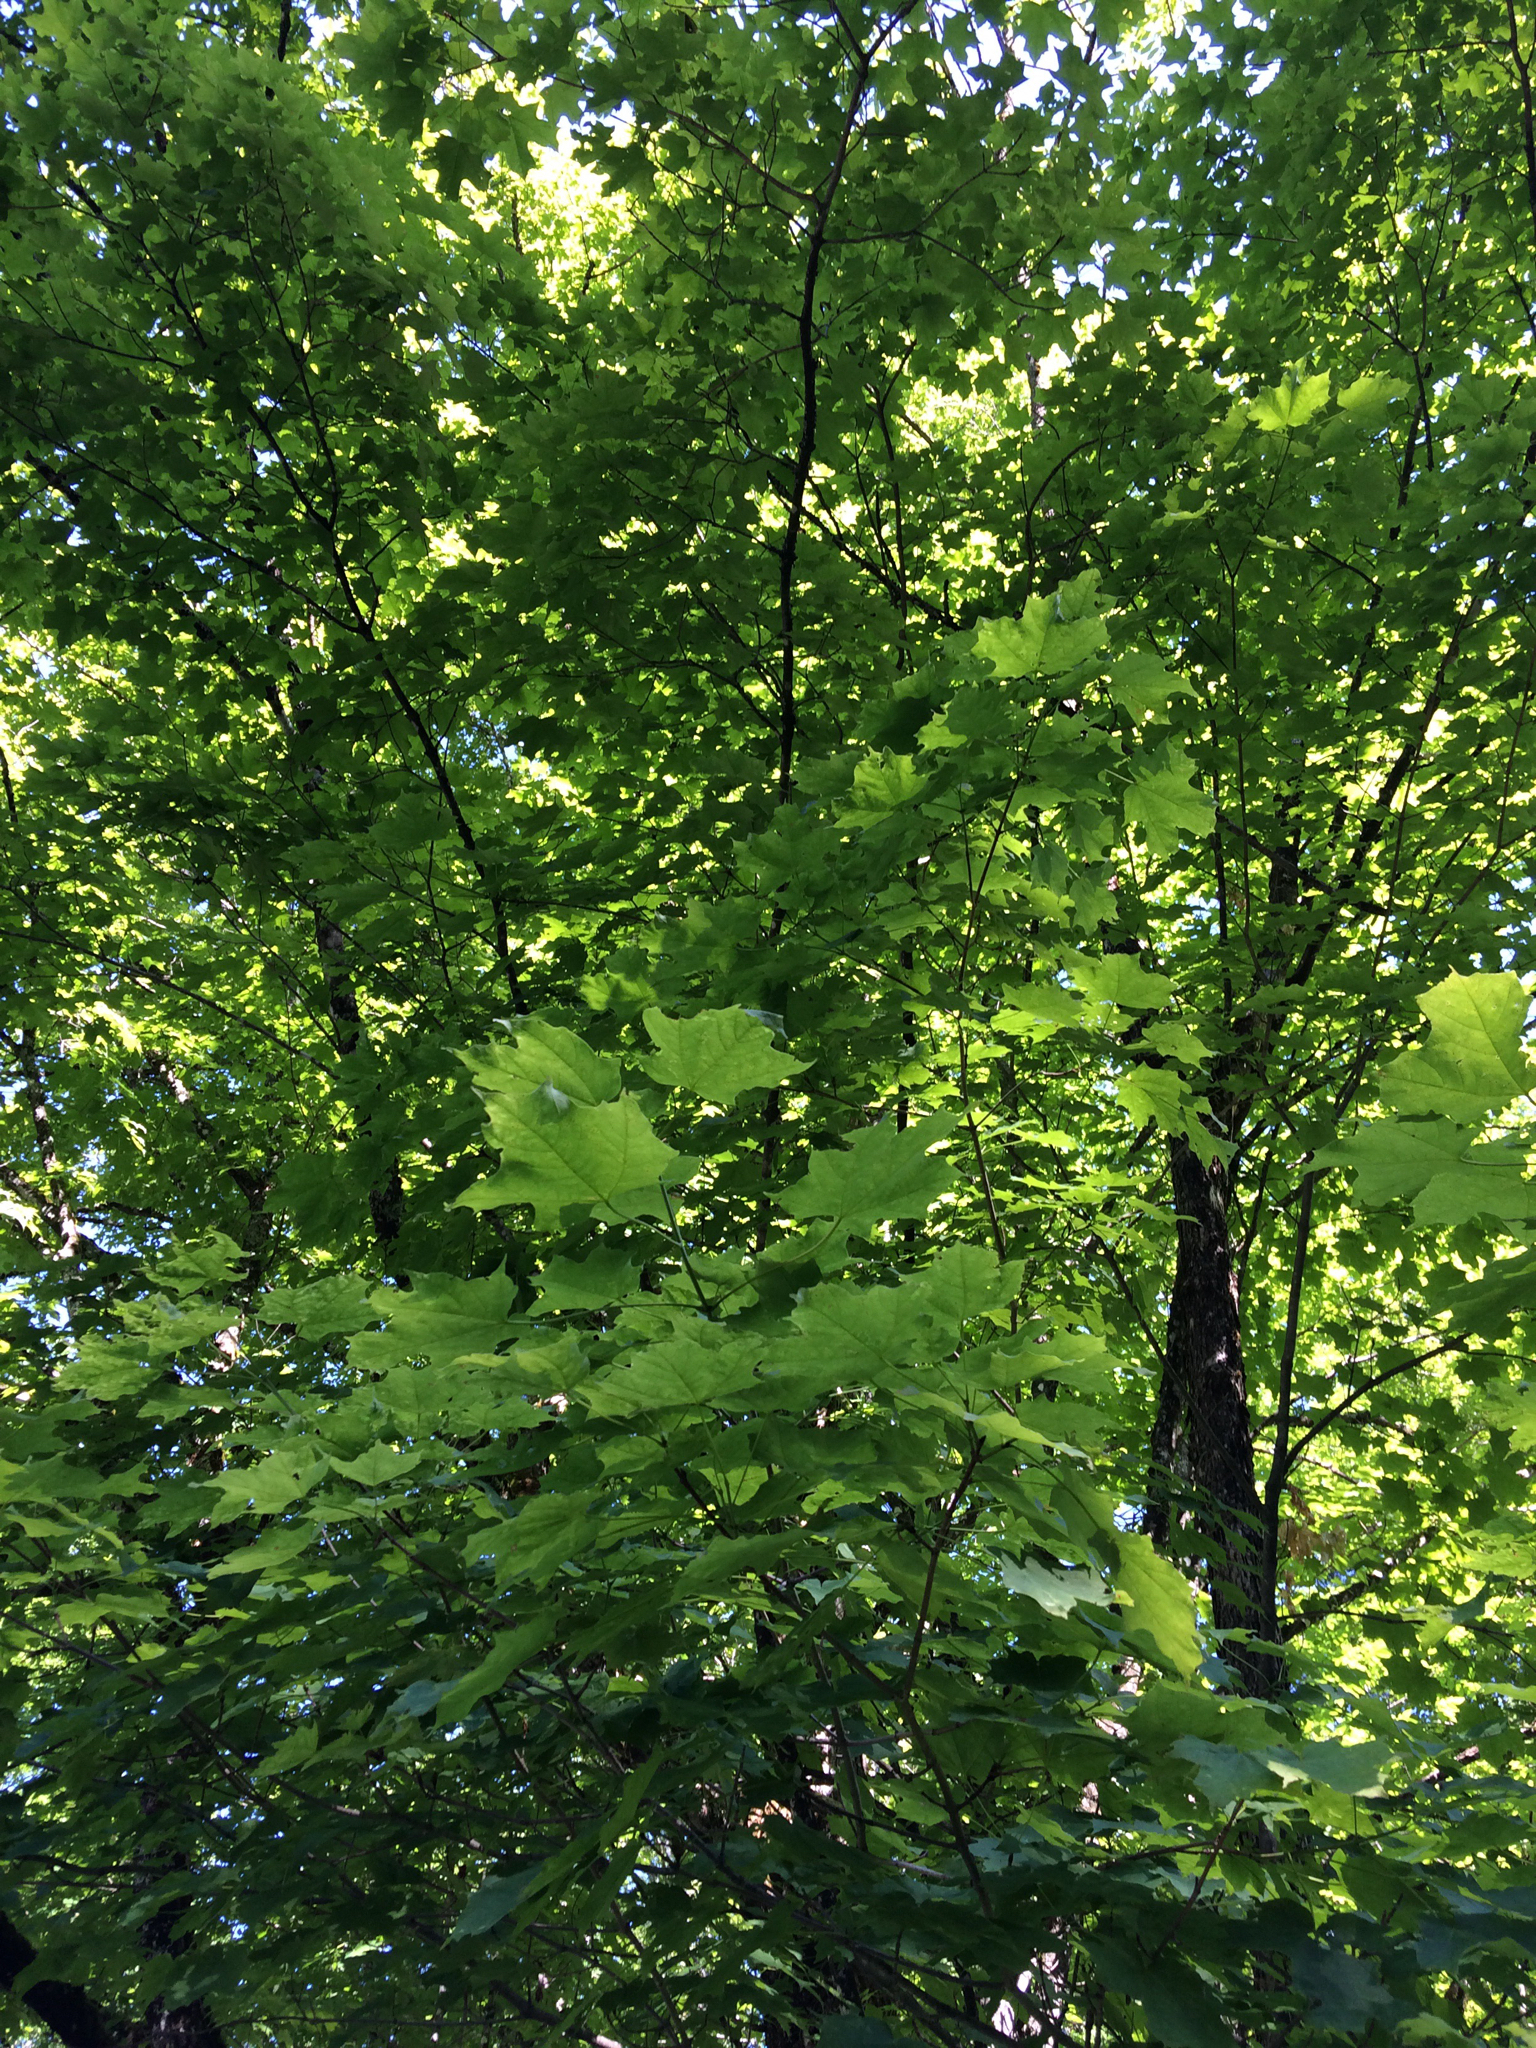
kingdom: Plantae
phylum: Tracheophyta
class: Magnoliopsida
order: Sapindales
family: Sapindaceae
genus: Acer
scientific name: Acer saccharum
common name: Sugar maple
